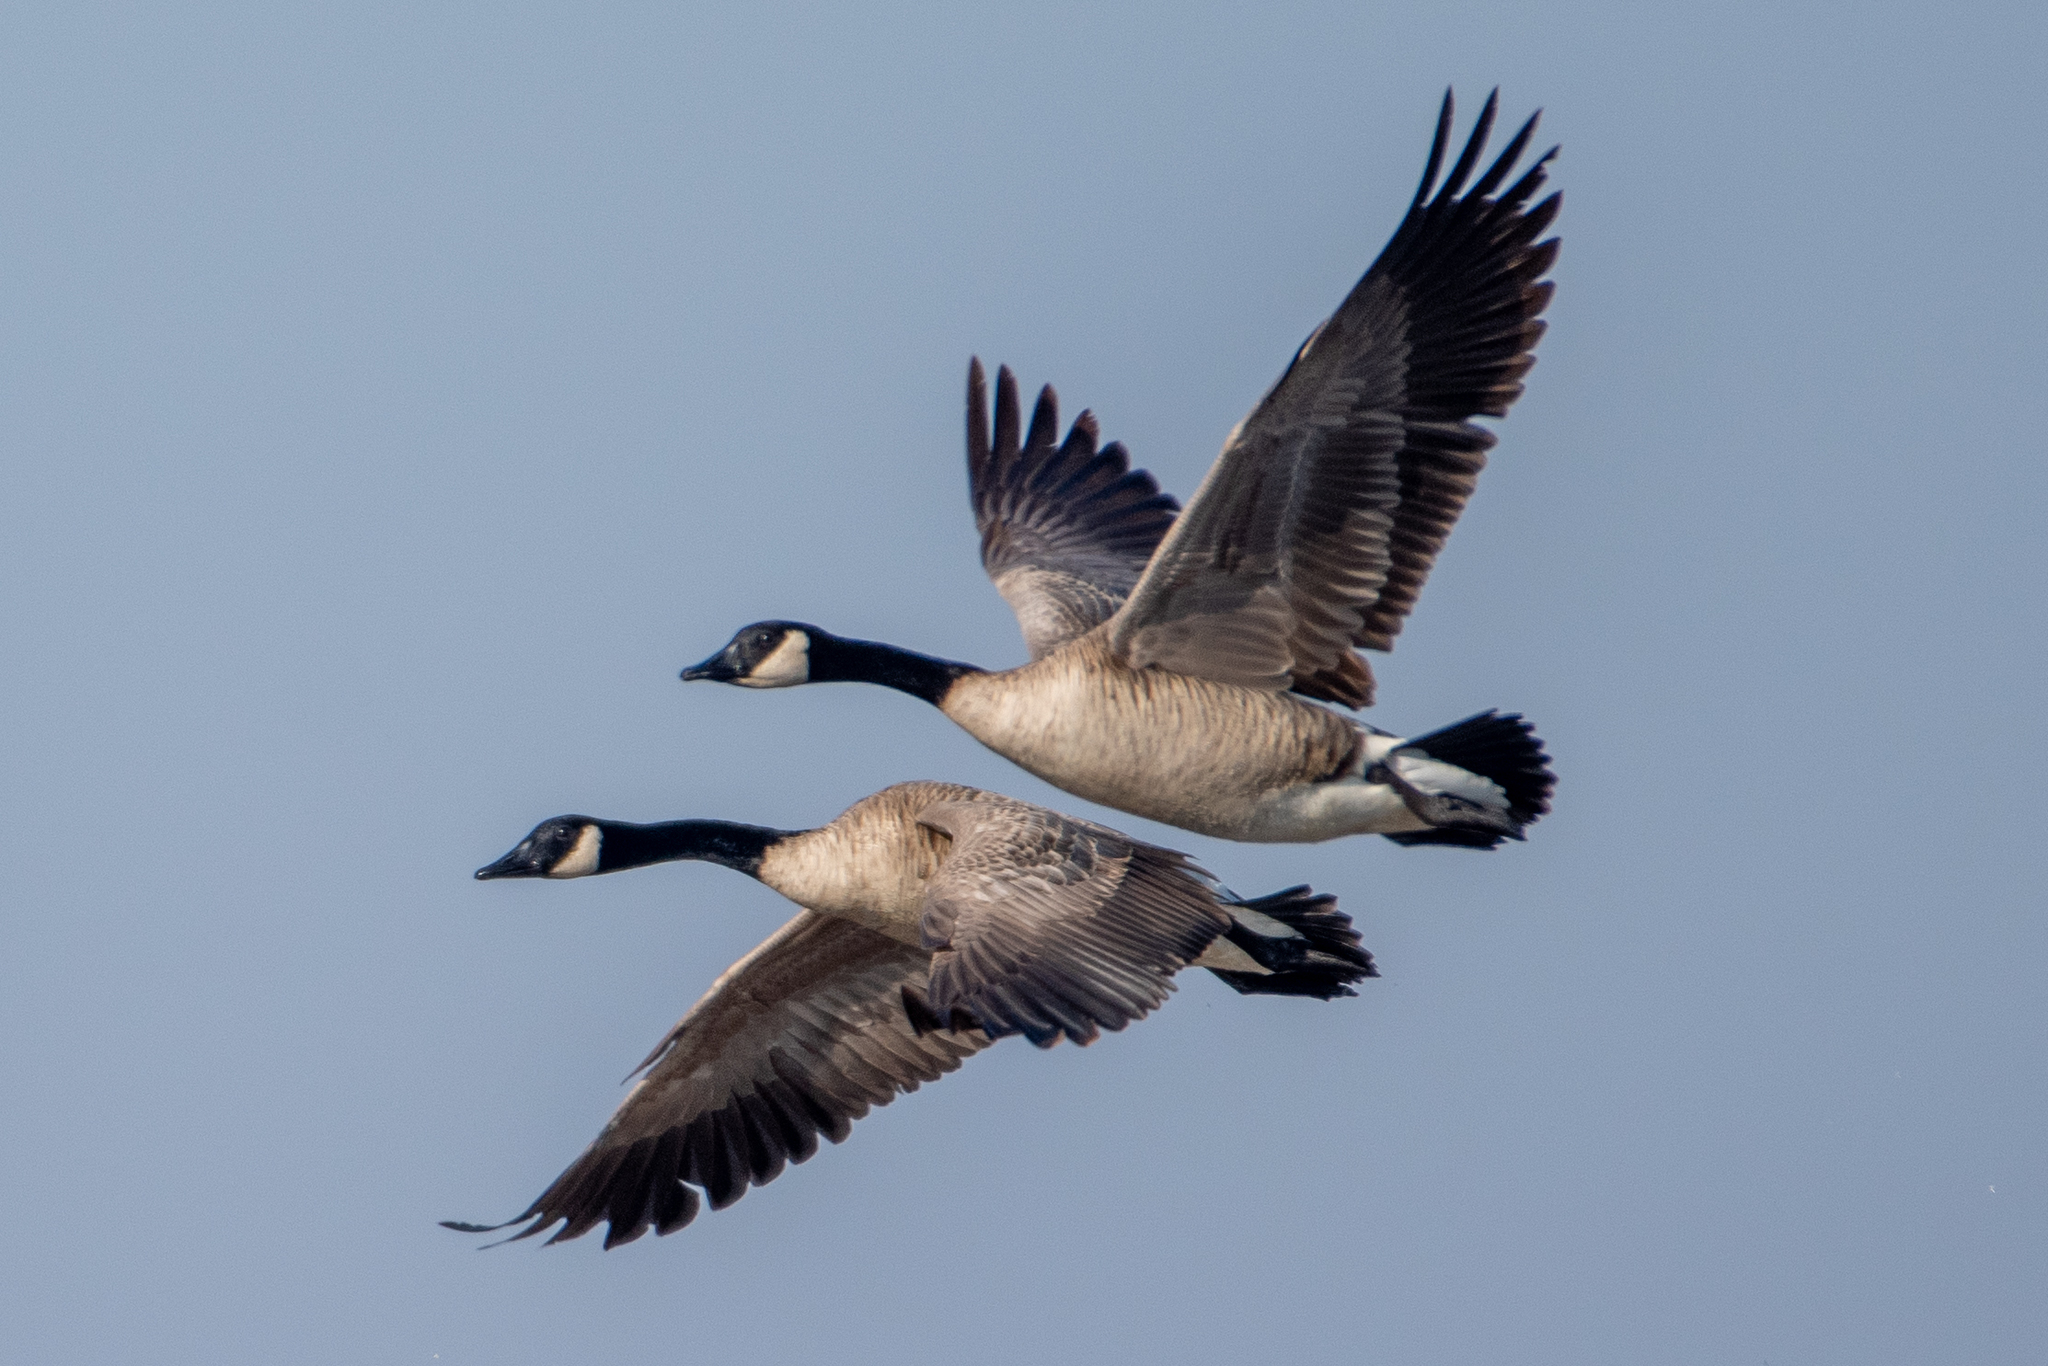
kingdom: Animalia
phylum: Chordata
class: Aves
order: Anseriformes
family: Anatidae
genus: Branta
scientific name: Branta canadensis
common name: Canada goose
